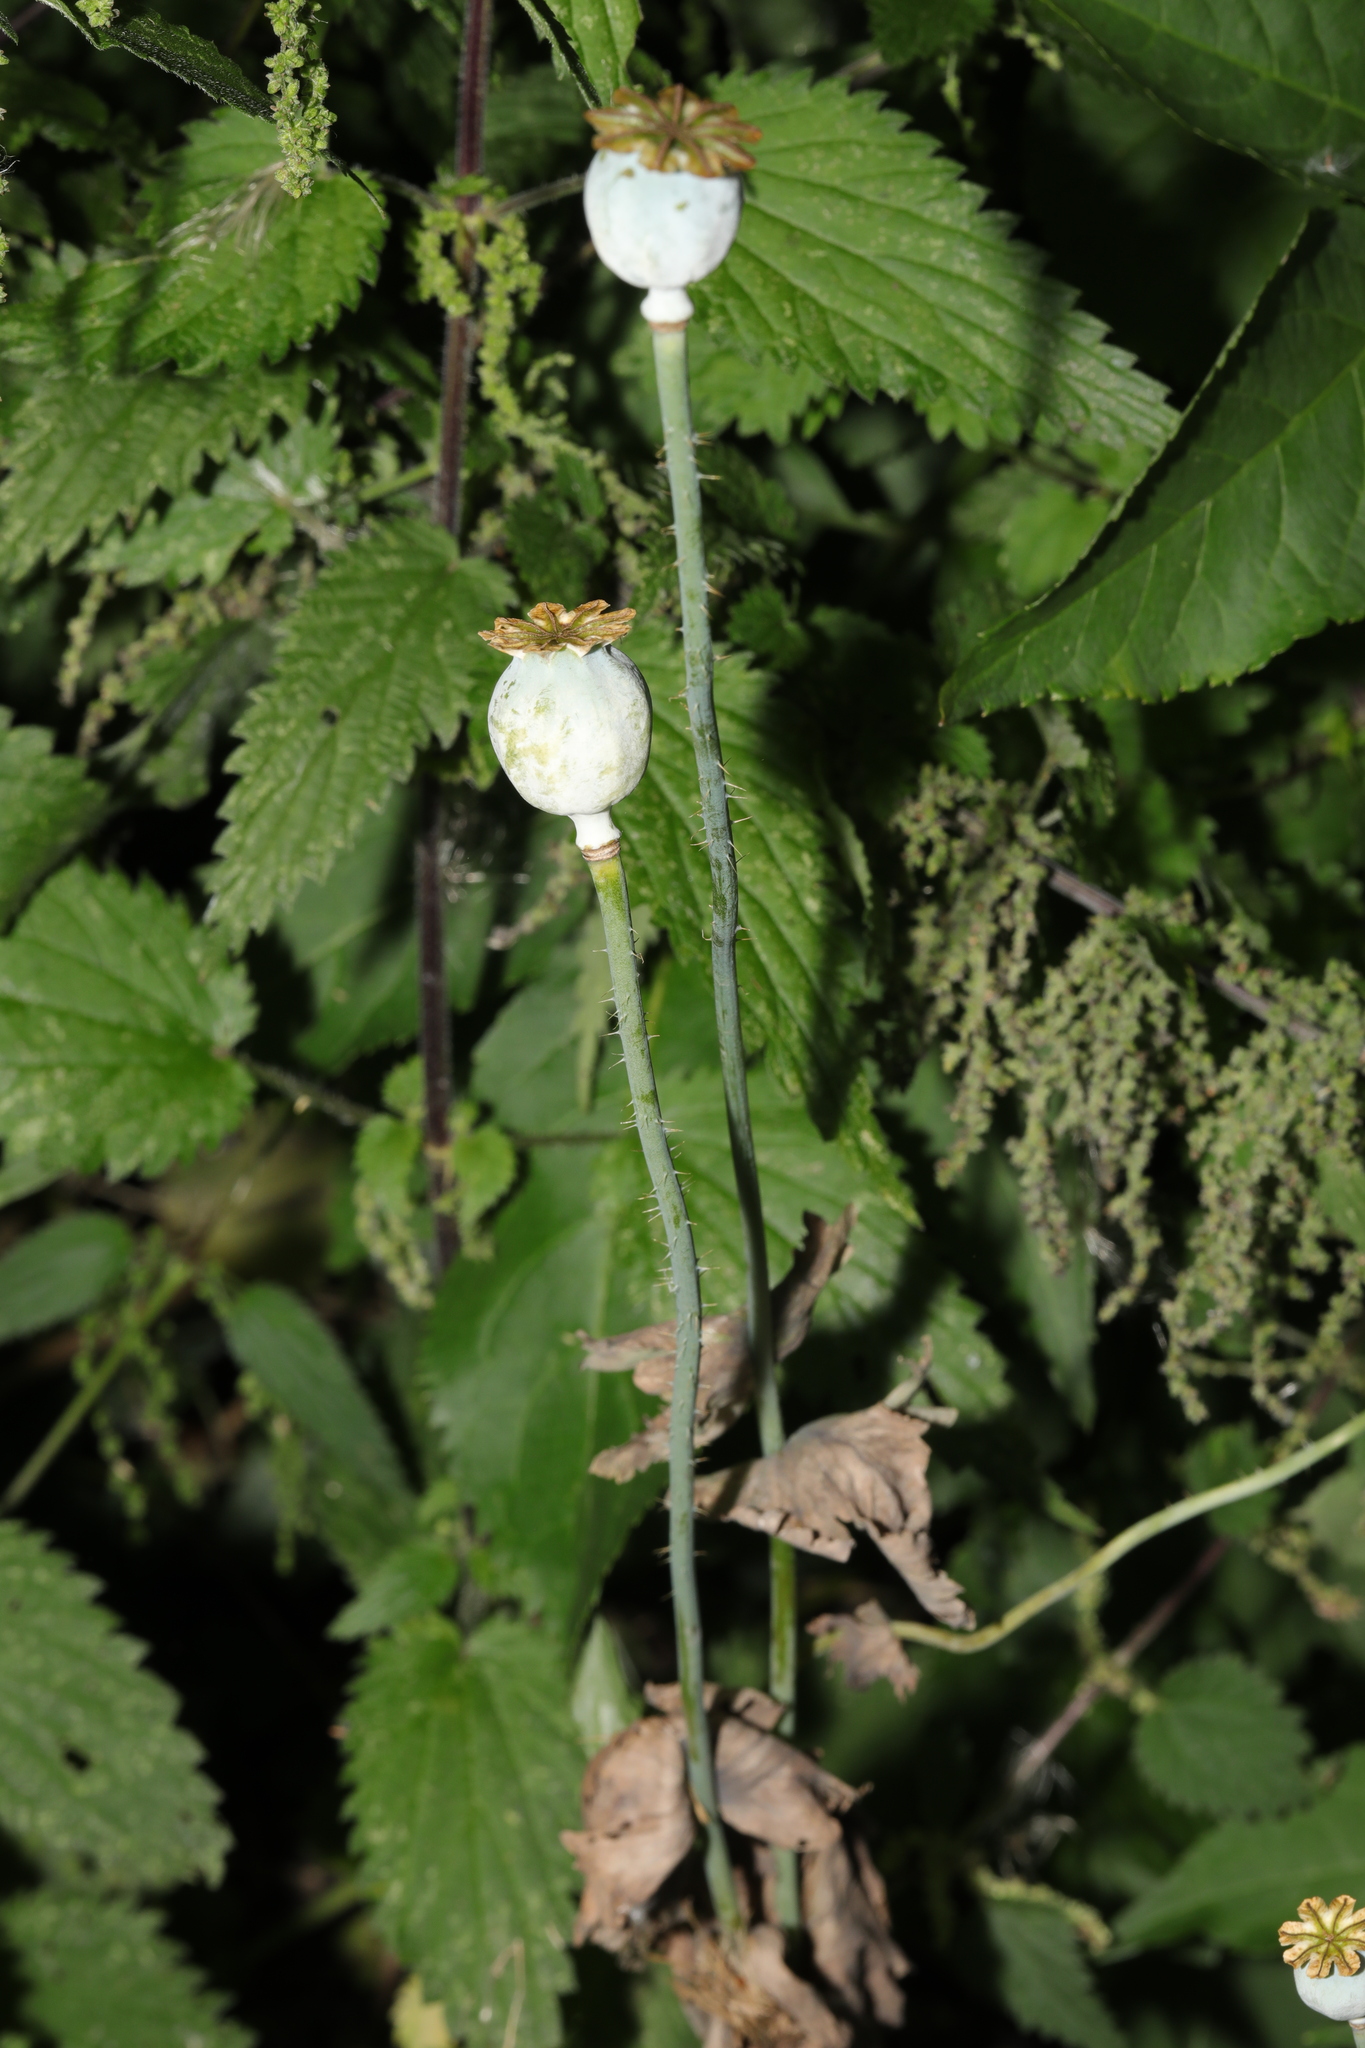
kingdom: Plantae
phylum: Tracheophyta
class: Magnoliopsida
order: Ranunculales
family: Papaveraceae
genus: Papaver
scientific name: Papaver somniferum
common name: Opium poppy
